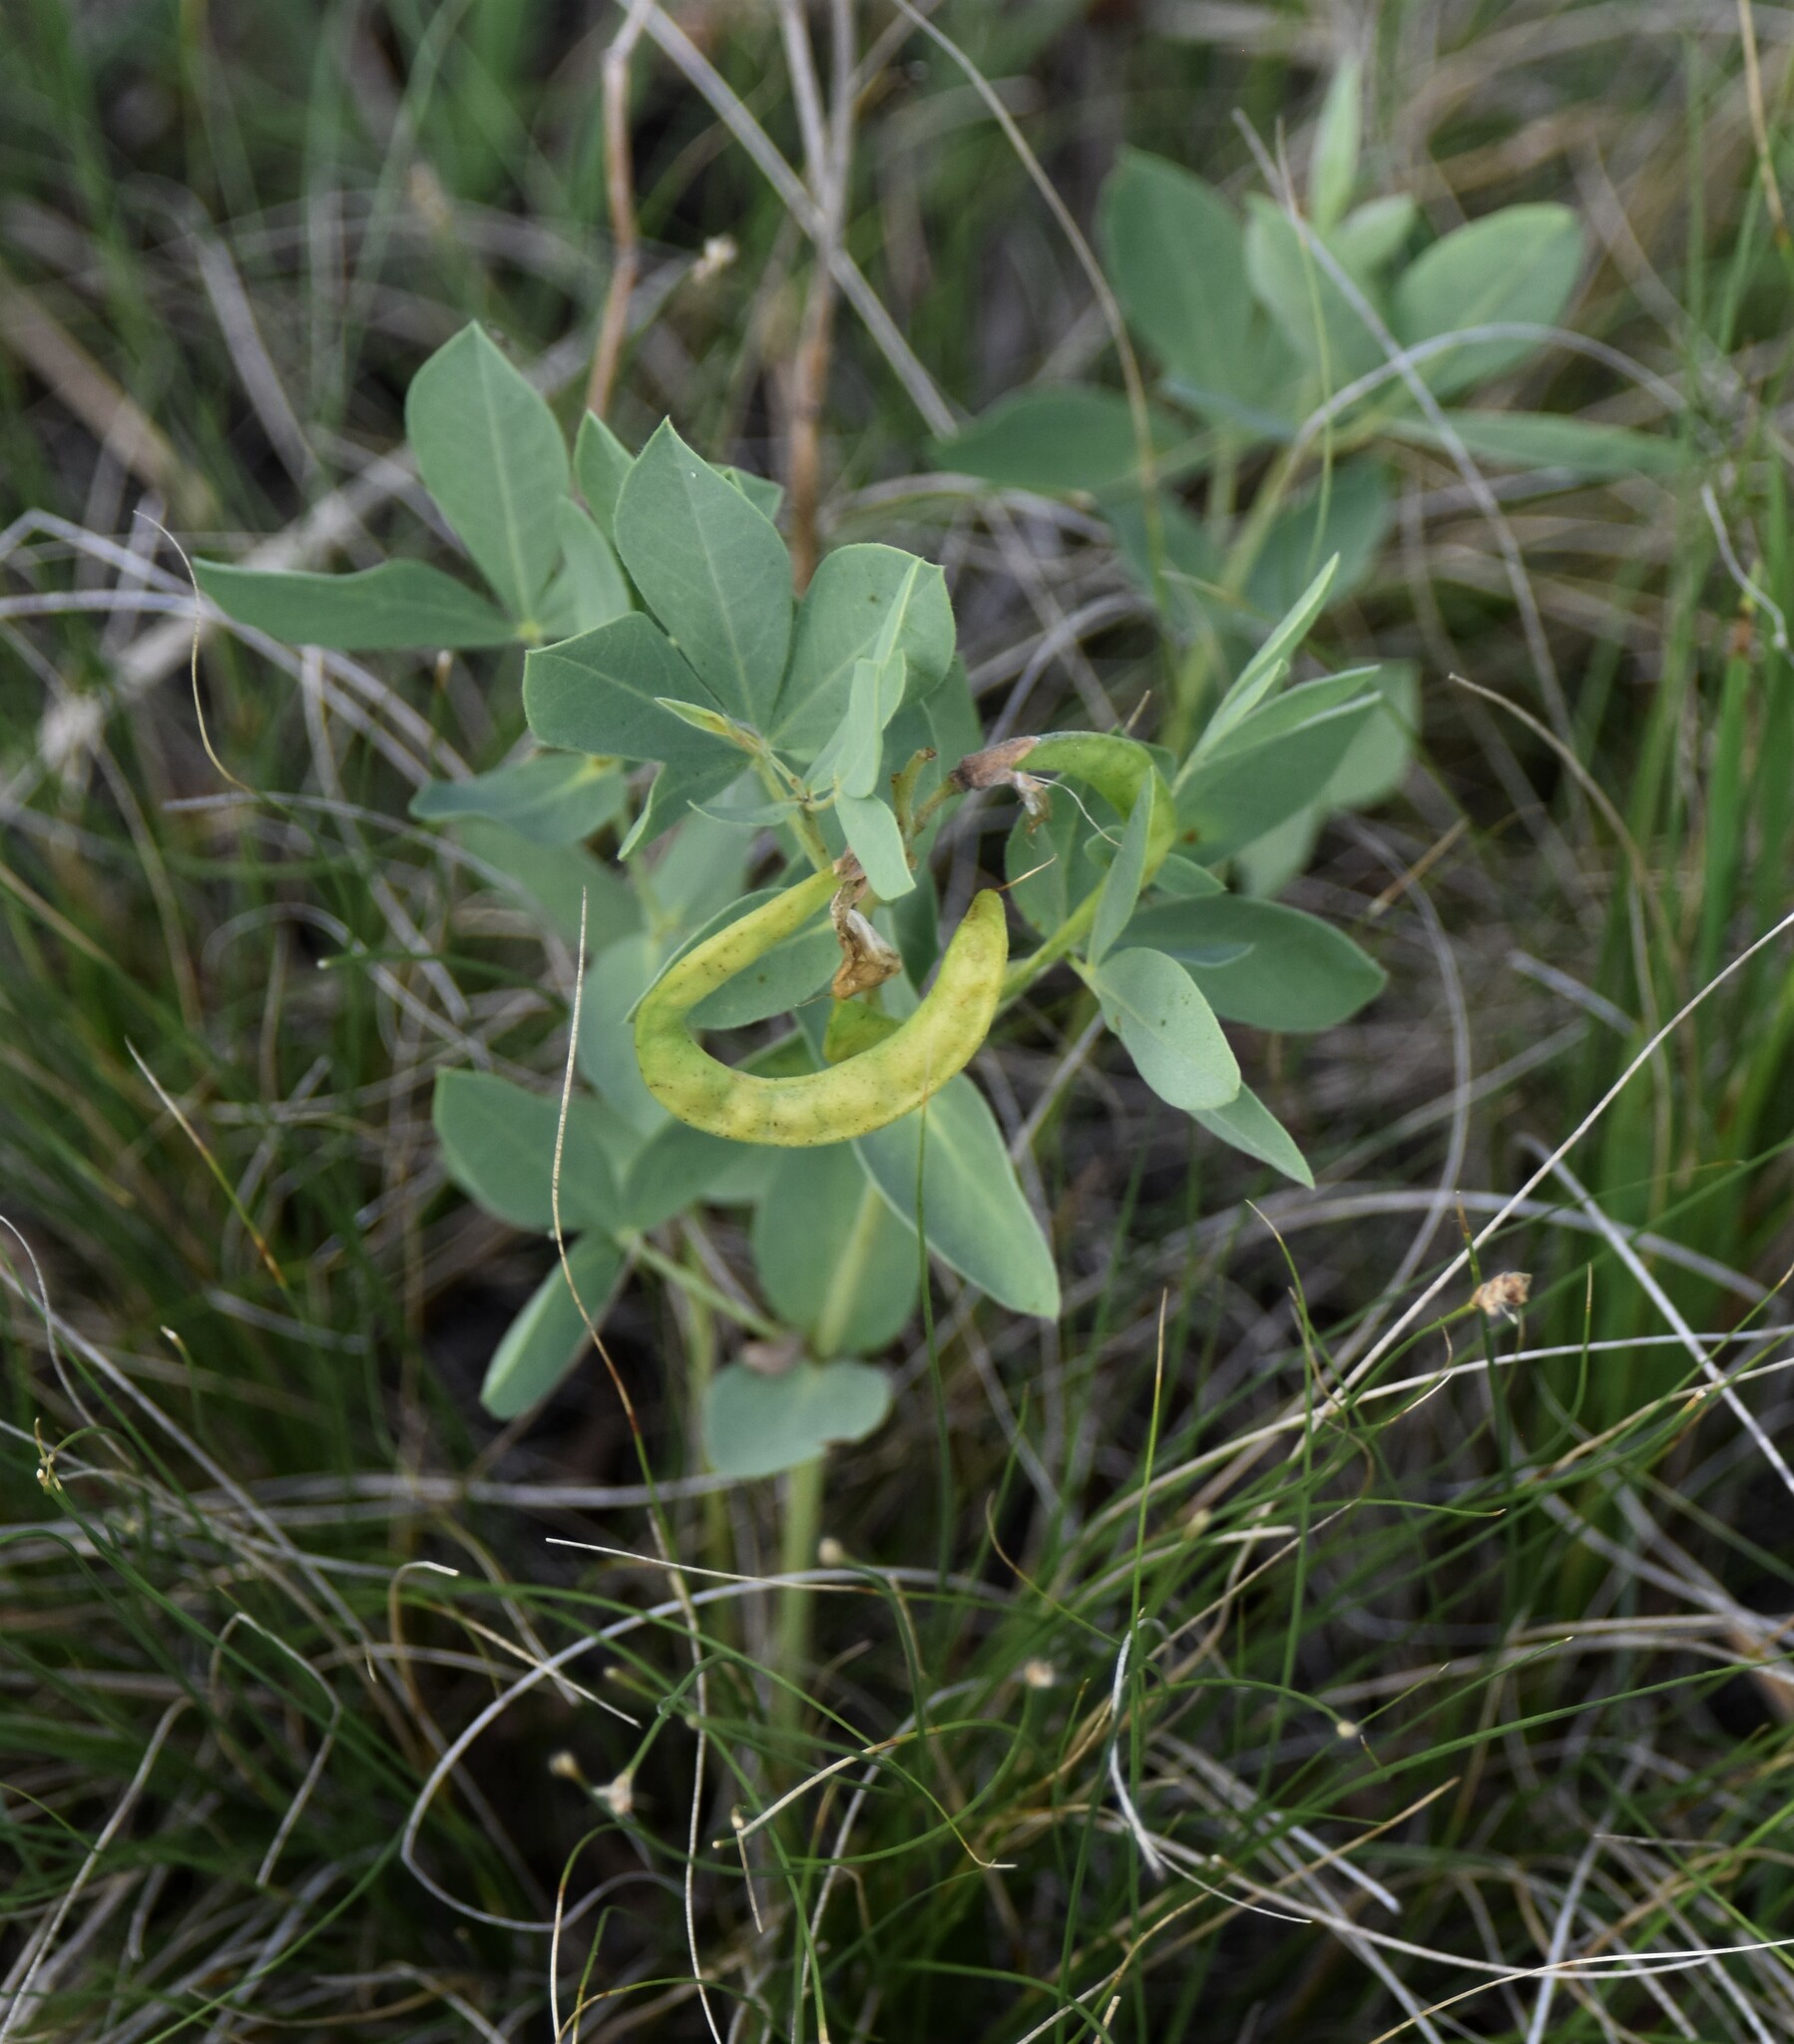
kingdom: Plantae
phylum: Tracheophyta
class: Magnoliopsida
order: Fabales
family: Fabaceae
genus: Thermopsis
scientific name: Thermopsis rhombifolia
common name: Circle-pod-pea
